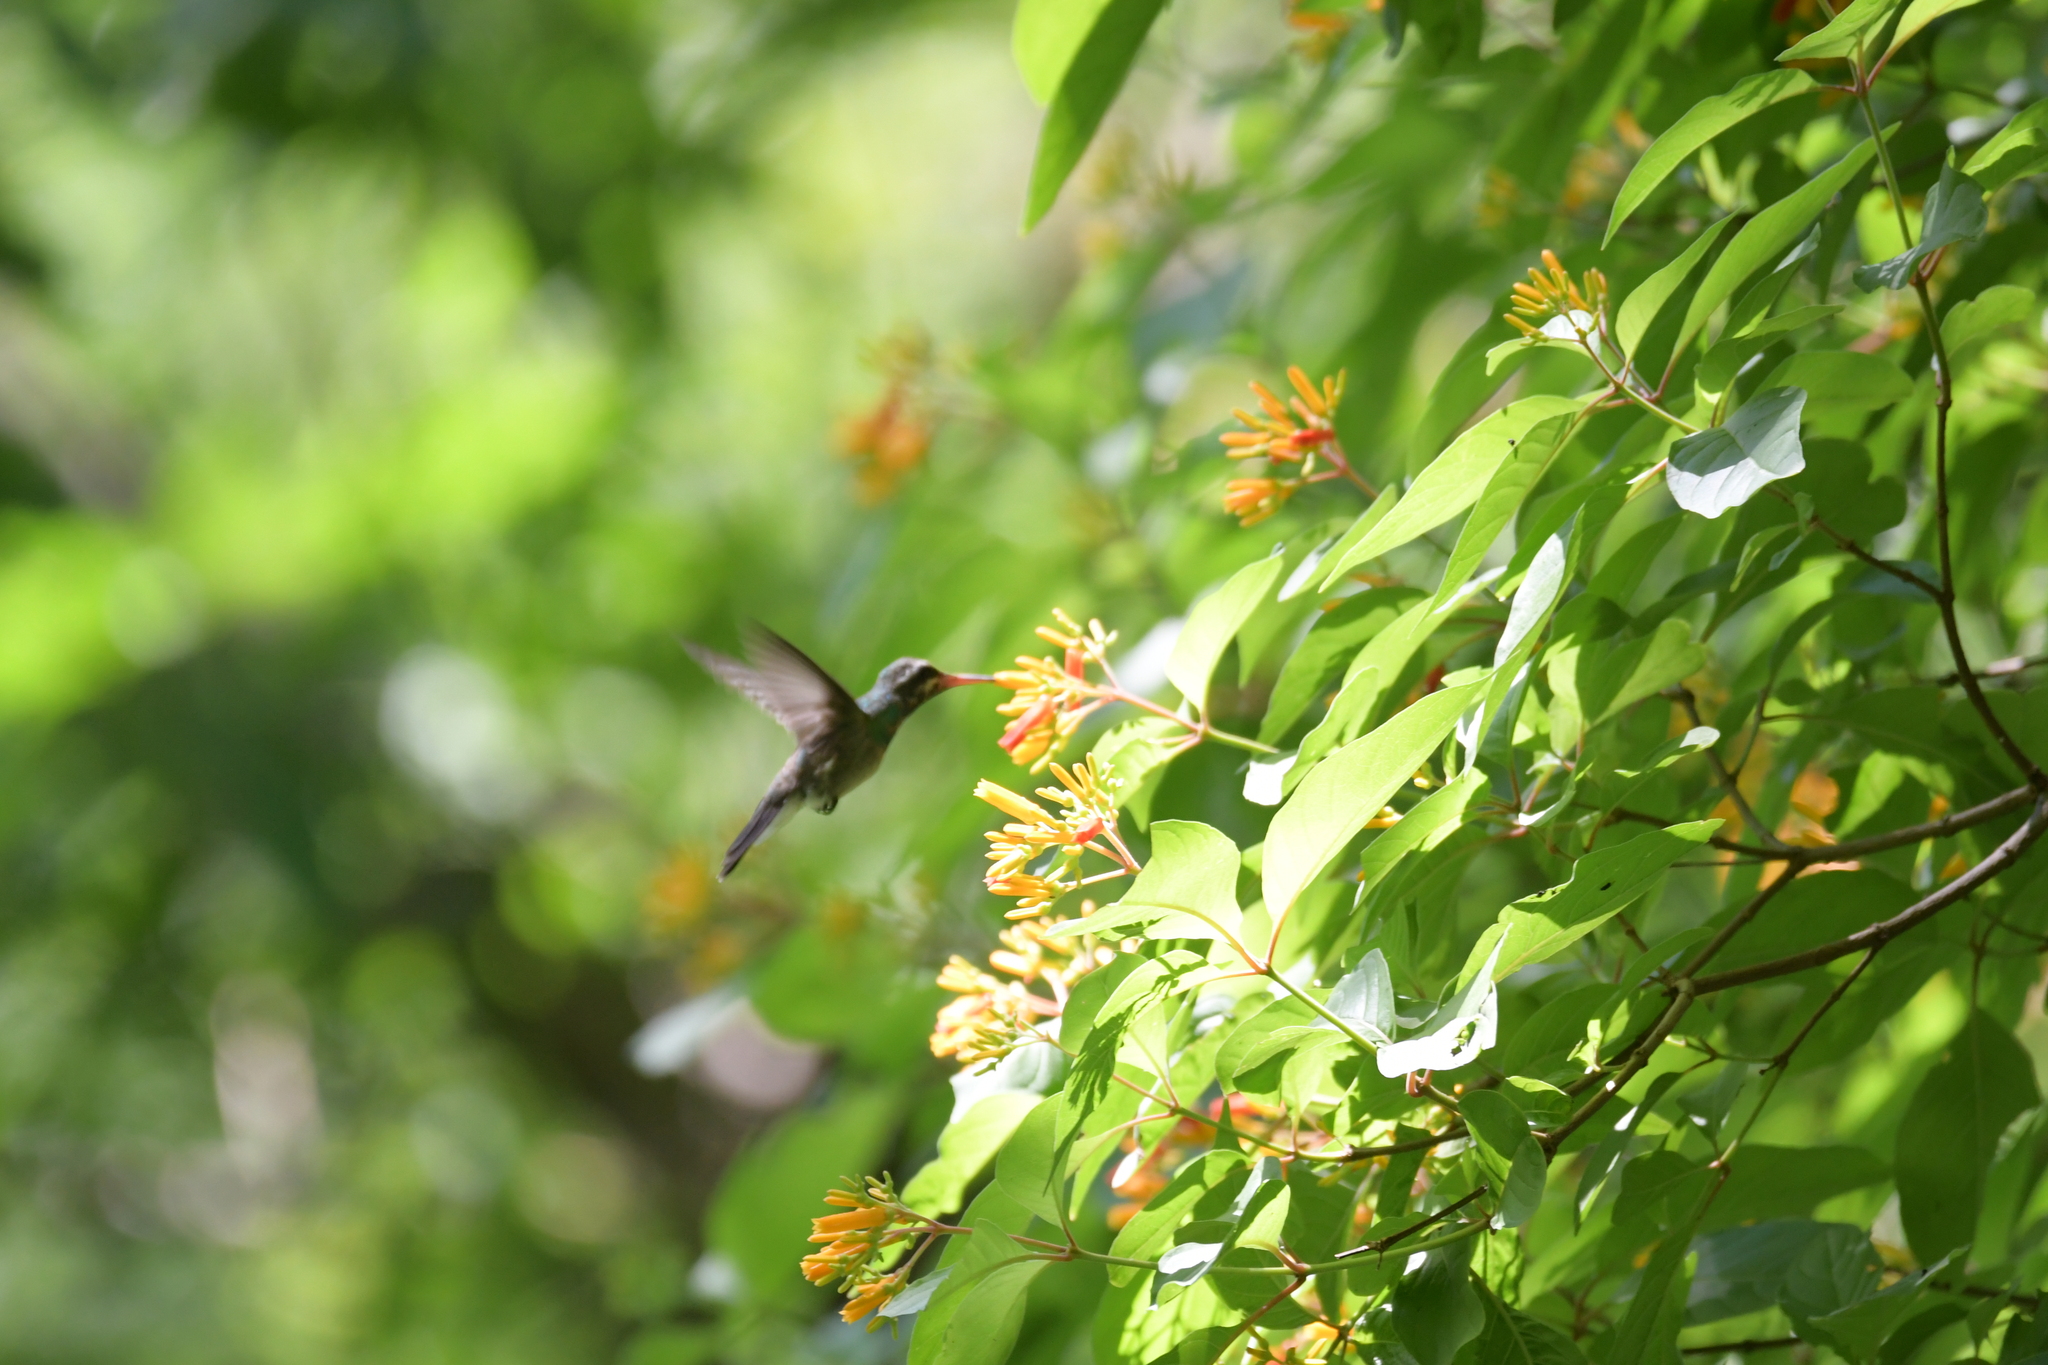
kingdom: Animalia
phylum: Chordata
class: Aves
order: Apodiformes
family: Trochilidae
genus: Cynanthus
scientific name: Cynanthus latirostris
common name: Broad-billed hummingbird
